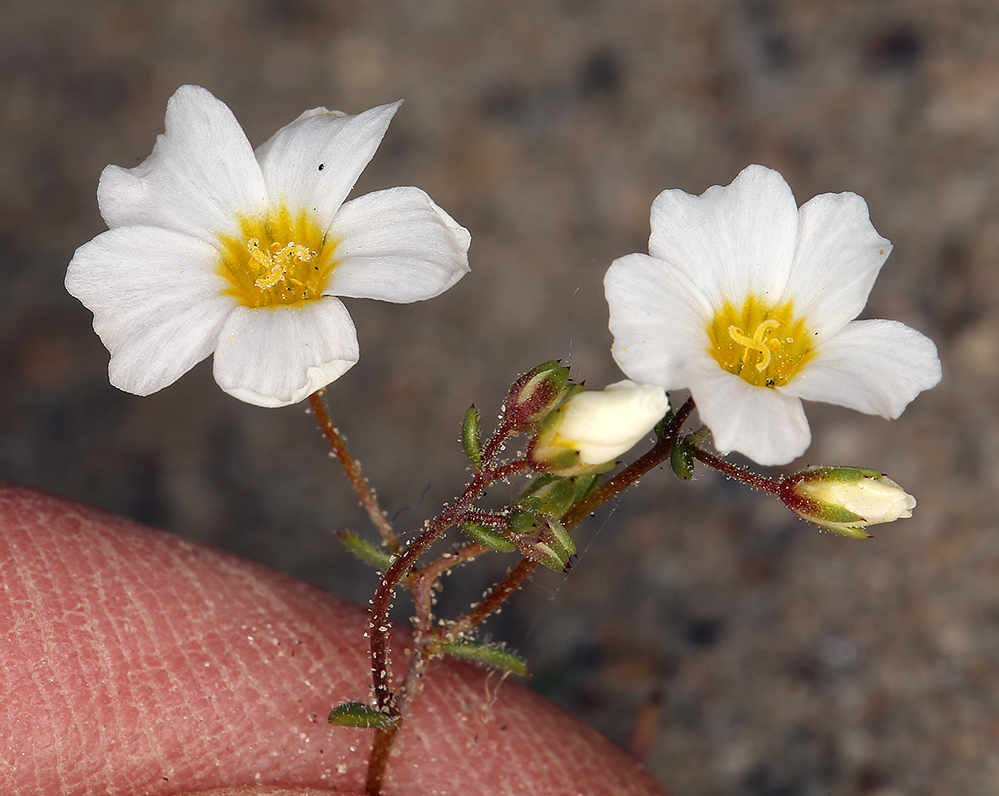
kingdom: Plantae
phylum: Tracheophyta
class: Magnoliopsida
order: Ericales
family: Polemoniaceae
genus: Linanthus
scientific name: Linanthus inyoensis
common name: Inyo gilia
